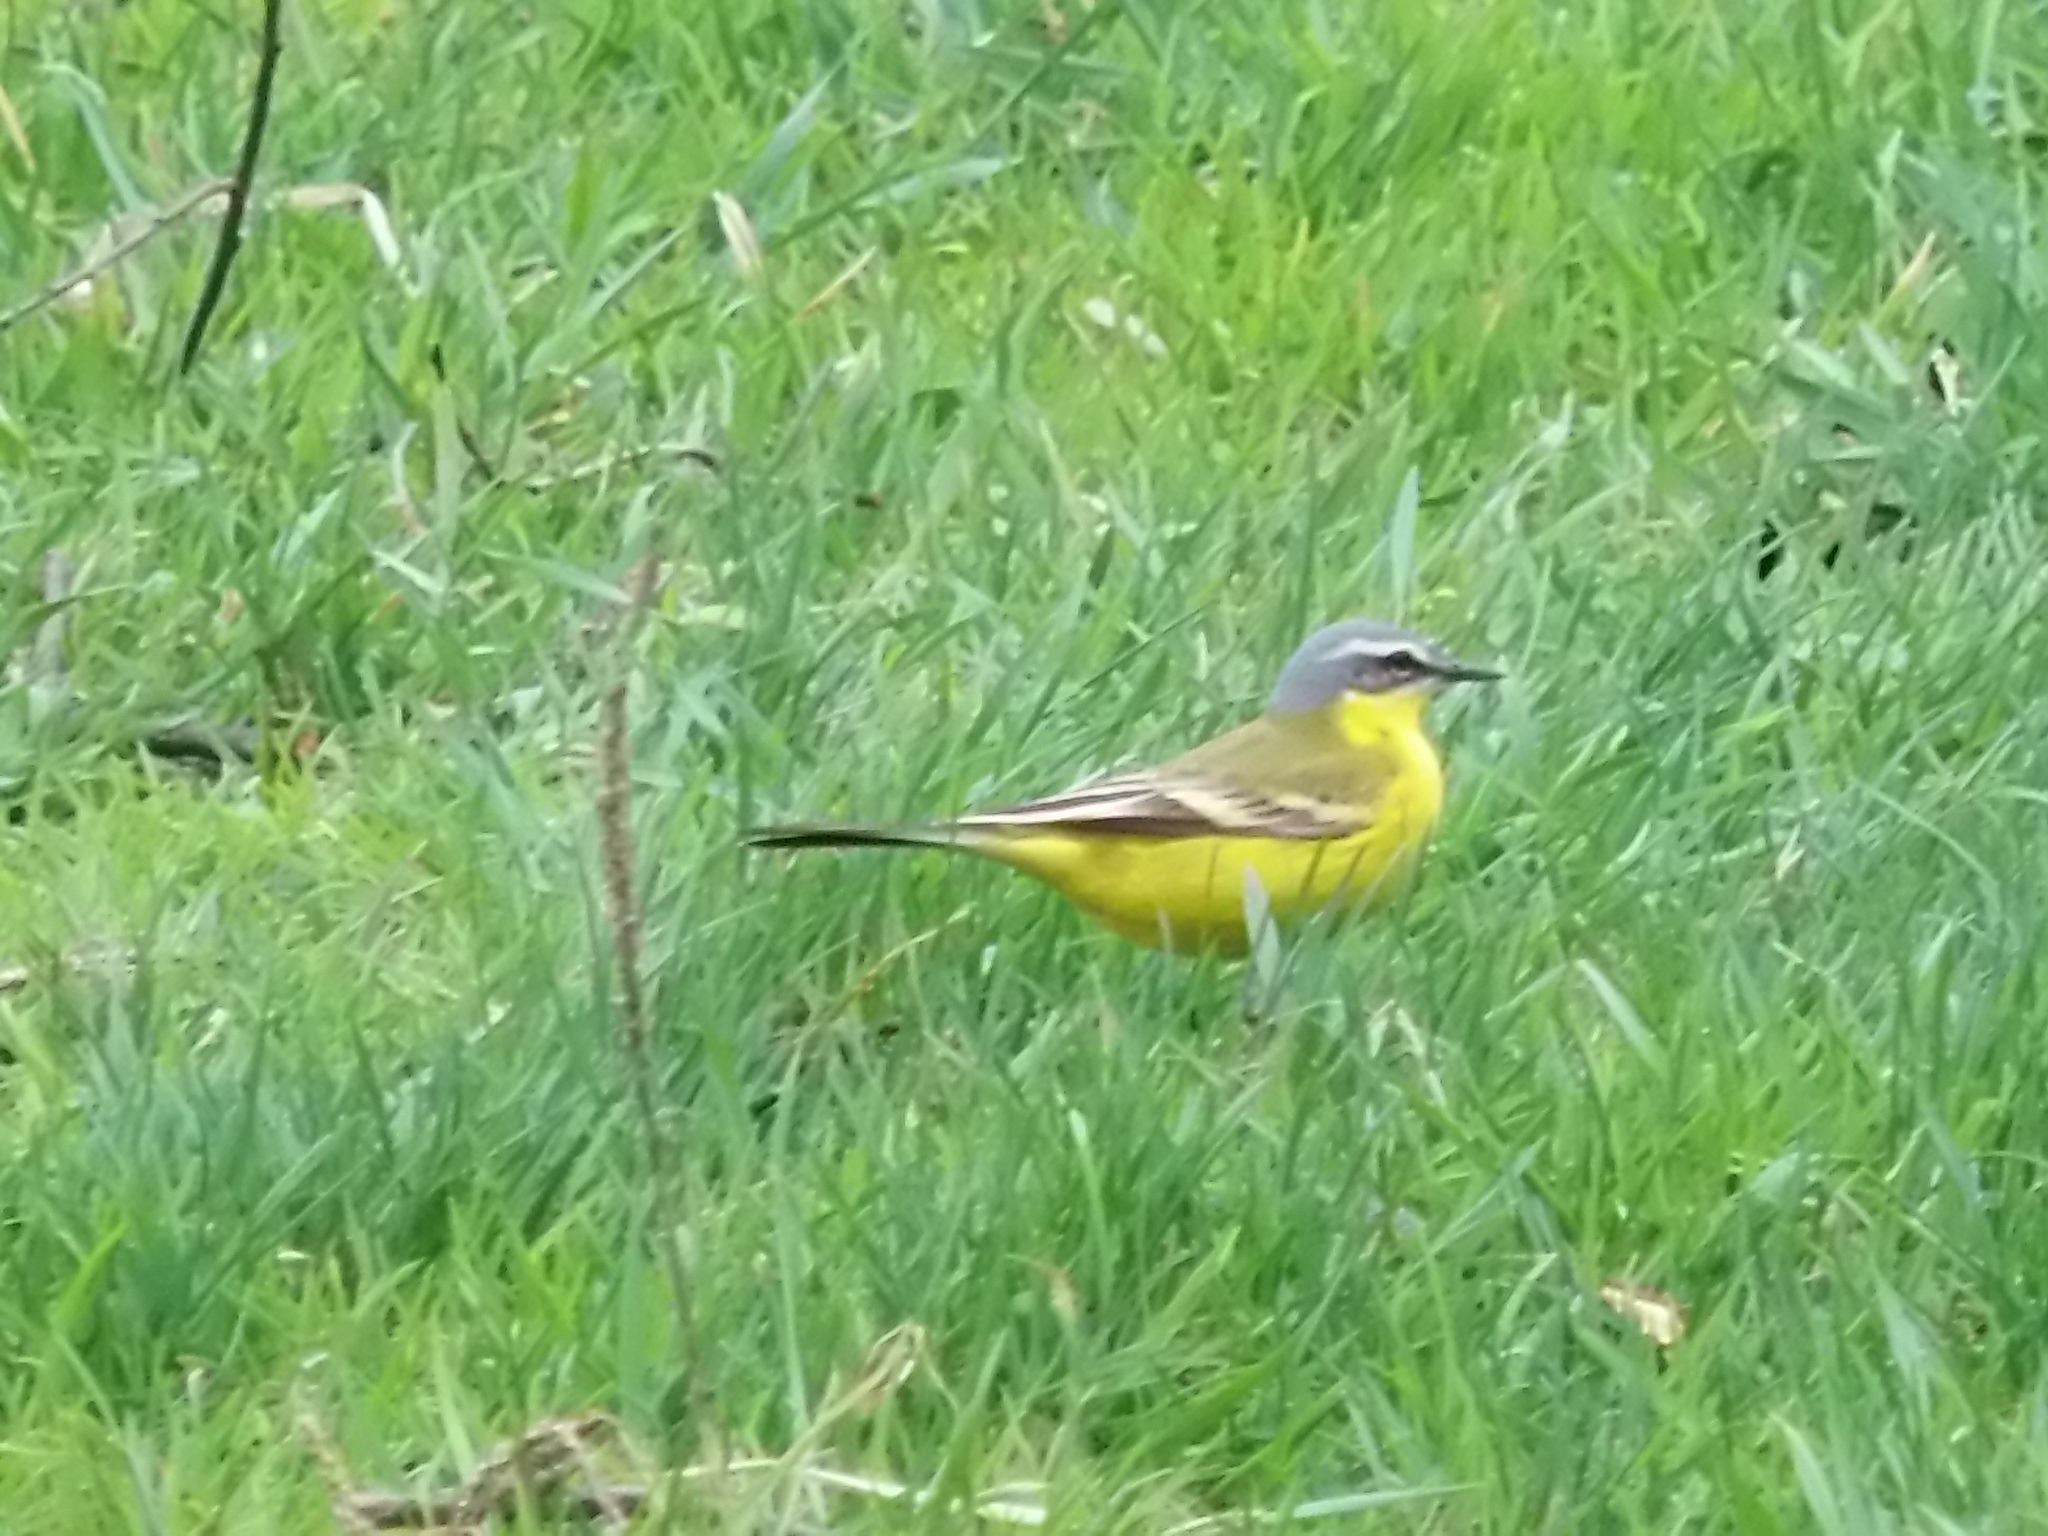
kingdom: Animalia
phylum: Chordata
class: Aves
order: Passeriformes
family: Motacillidae
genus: Motacilla
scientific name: Motacilla flava
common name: Western yellow wagtail
